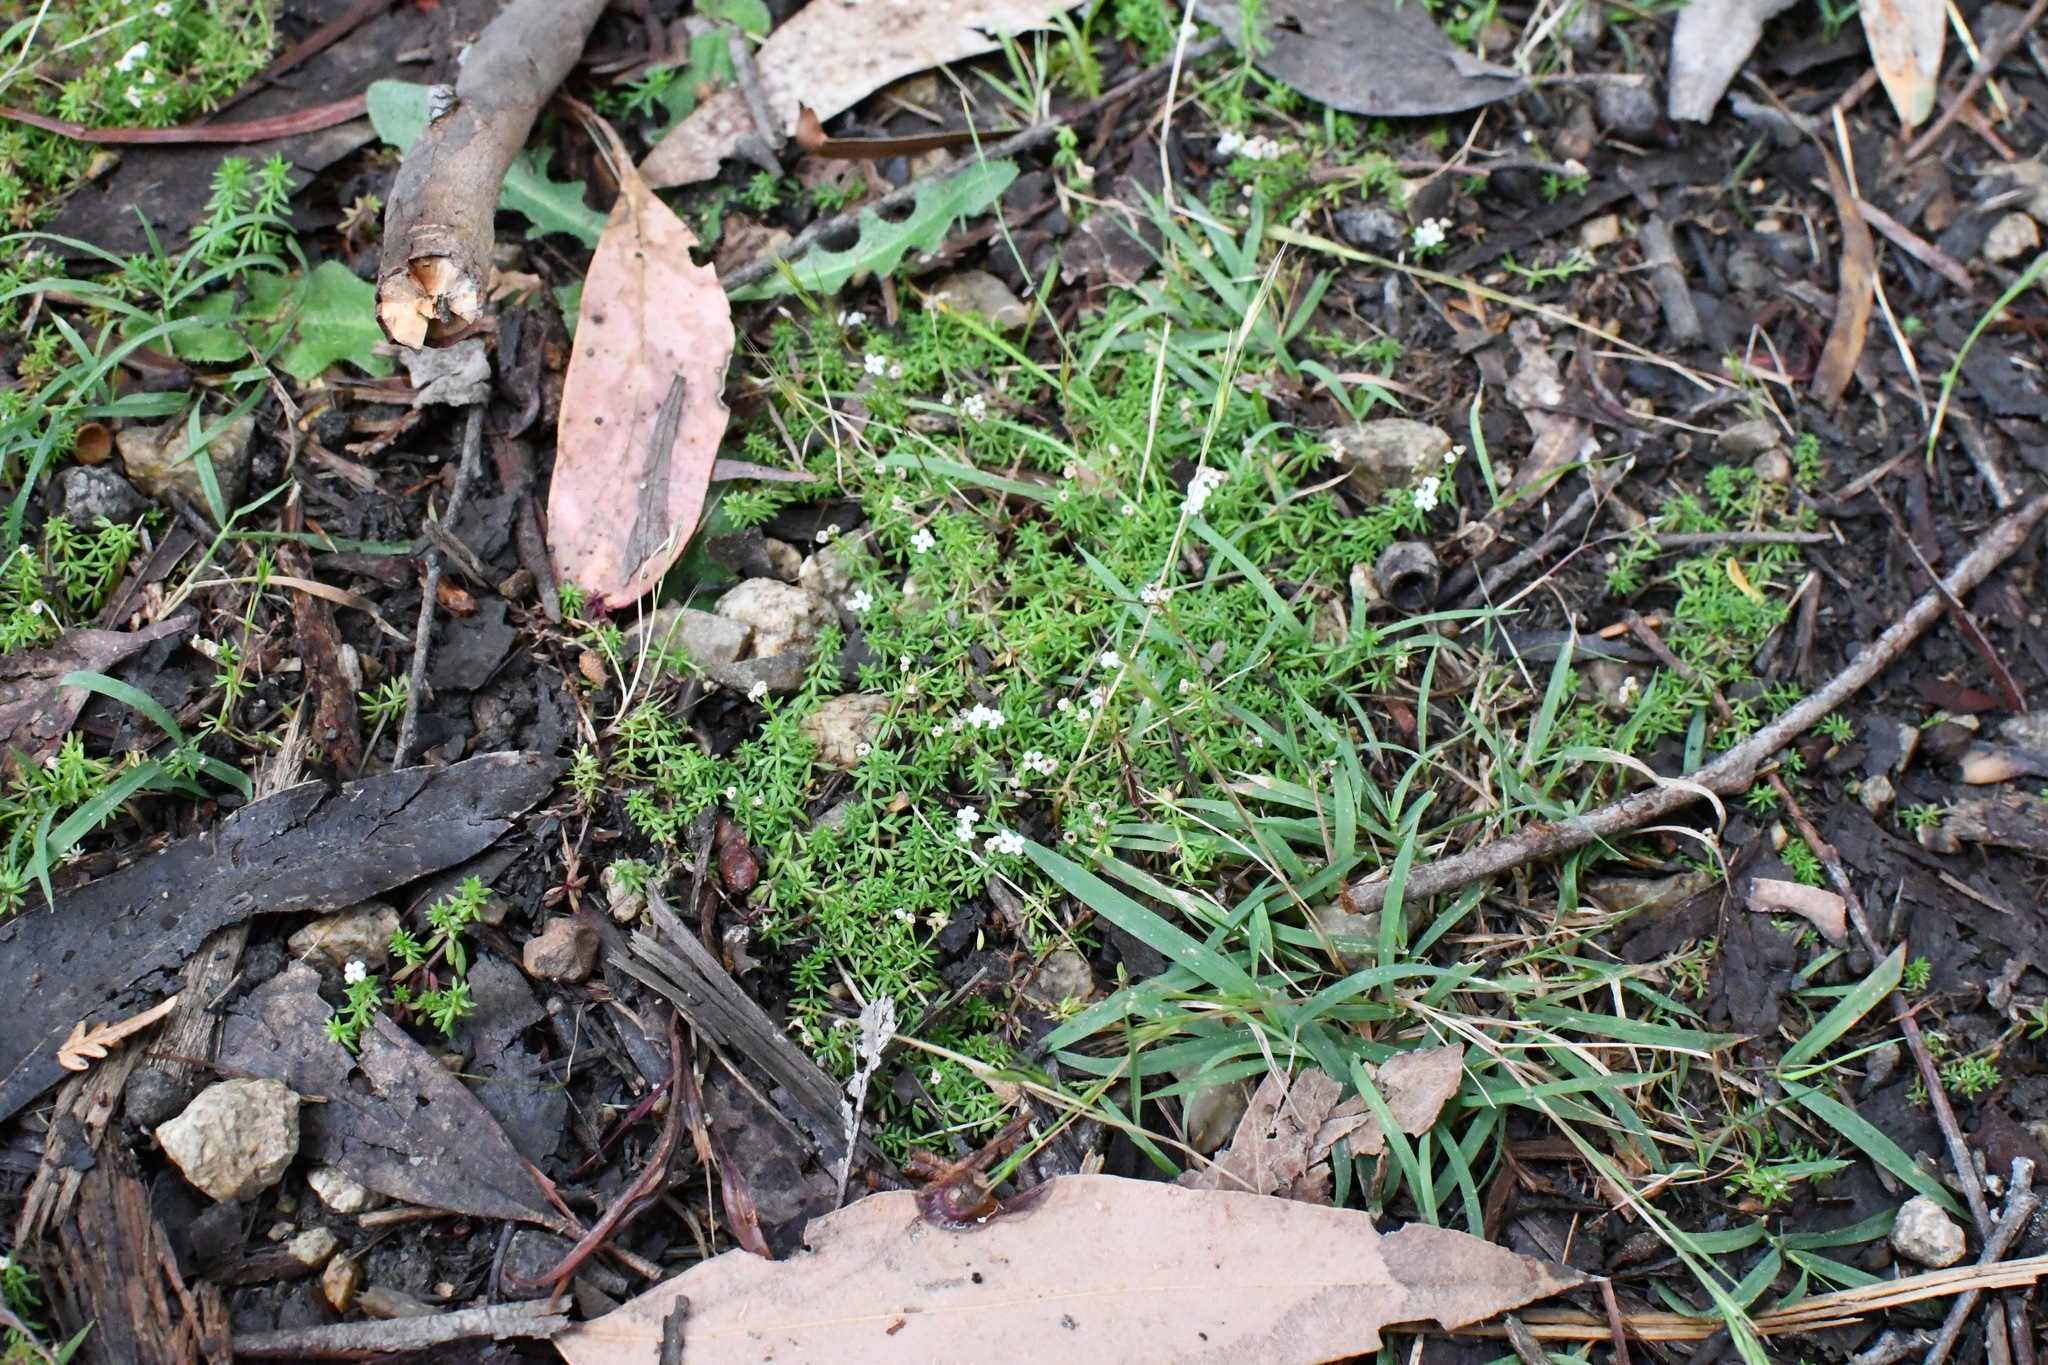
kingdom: Plantae
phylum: Tracheophyta
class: Magnoliopsida
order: Gentianales
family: Rubiaceae
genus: Asperula
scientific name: Asperula subsimplex
